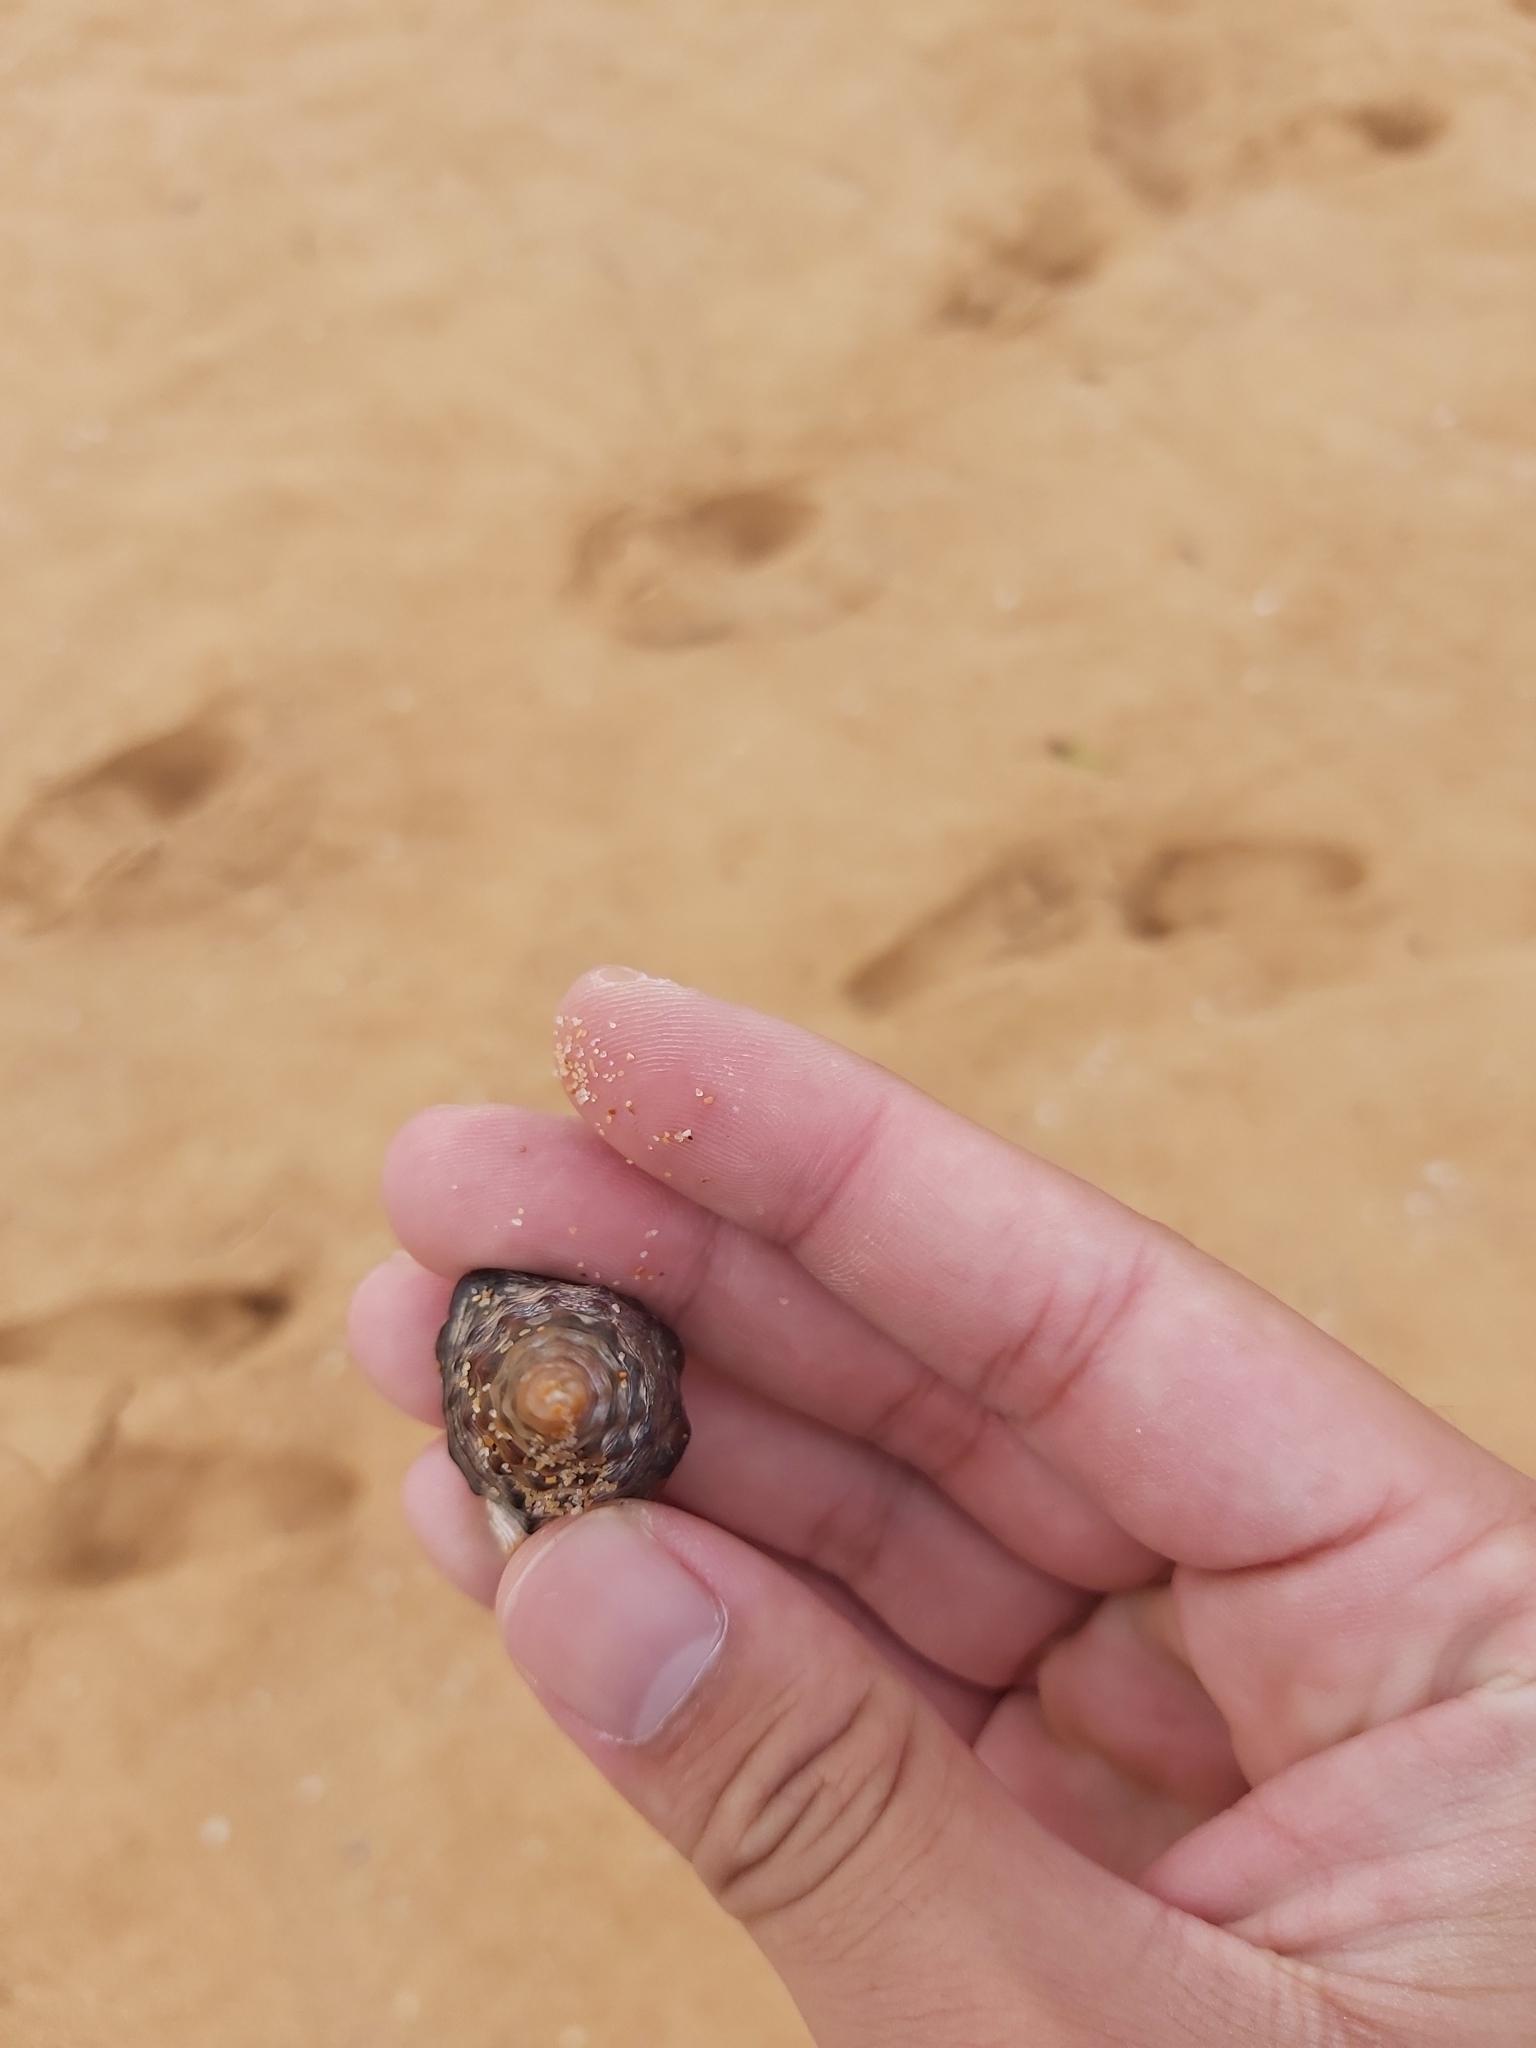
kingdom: Animalia
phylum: Mollusca
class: Gastropoda
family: Batillariidae
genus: Pyrazus
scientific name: Pyrazus ebeninus
